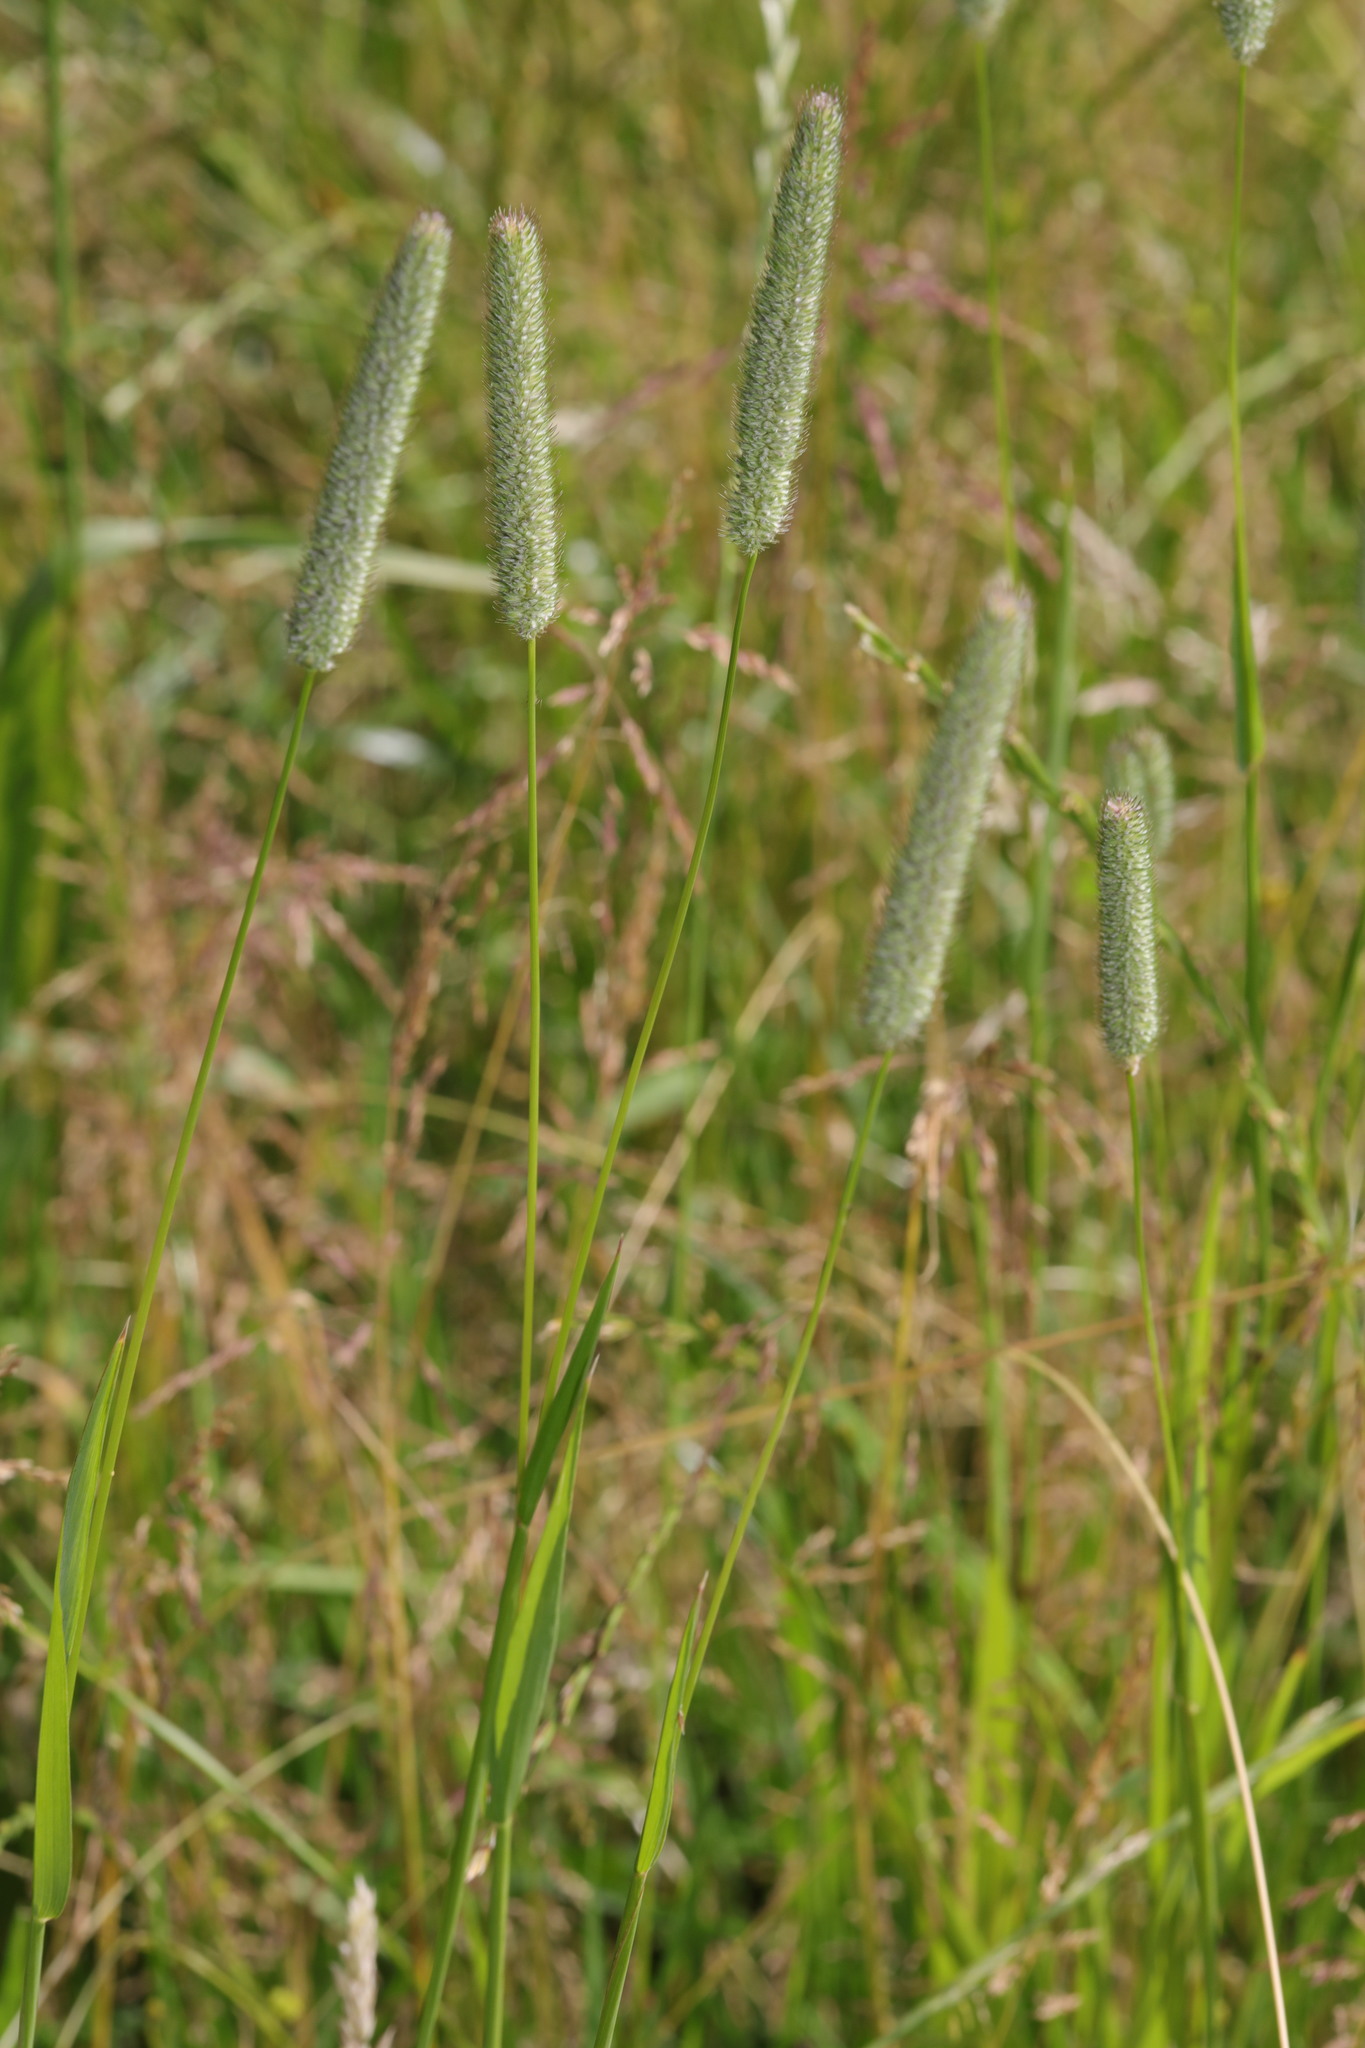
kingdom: Plantae
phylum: Tracheophyta
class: Liliopsida
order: Poales
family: Poaceae
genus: Phleum
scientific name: Phleum pratense
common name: Timothy grass
